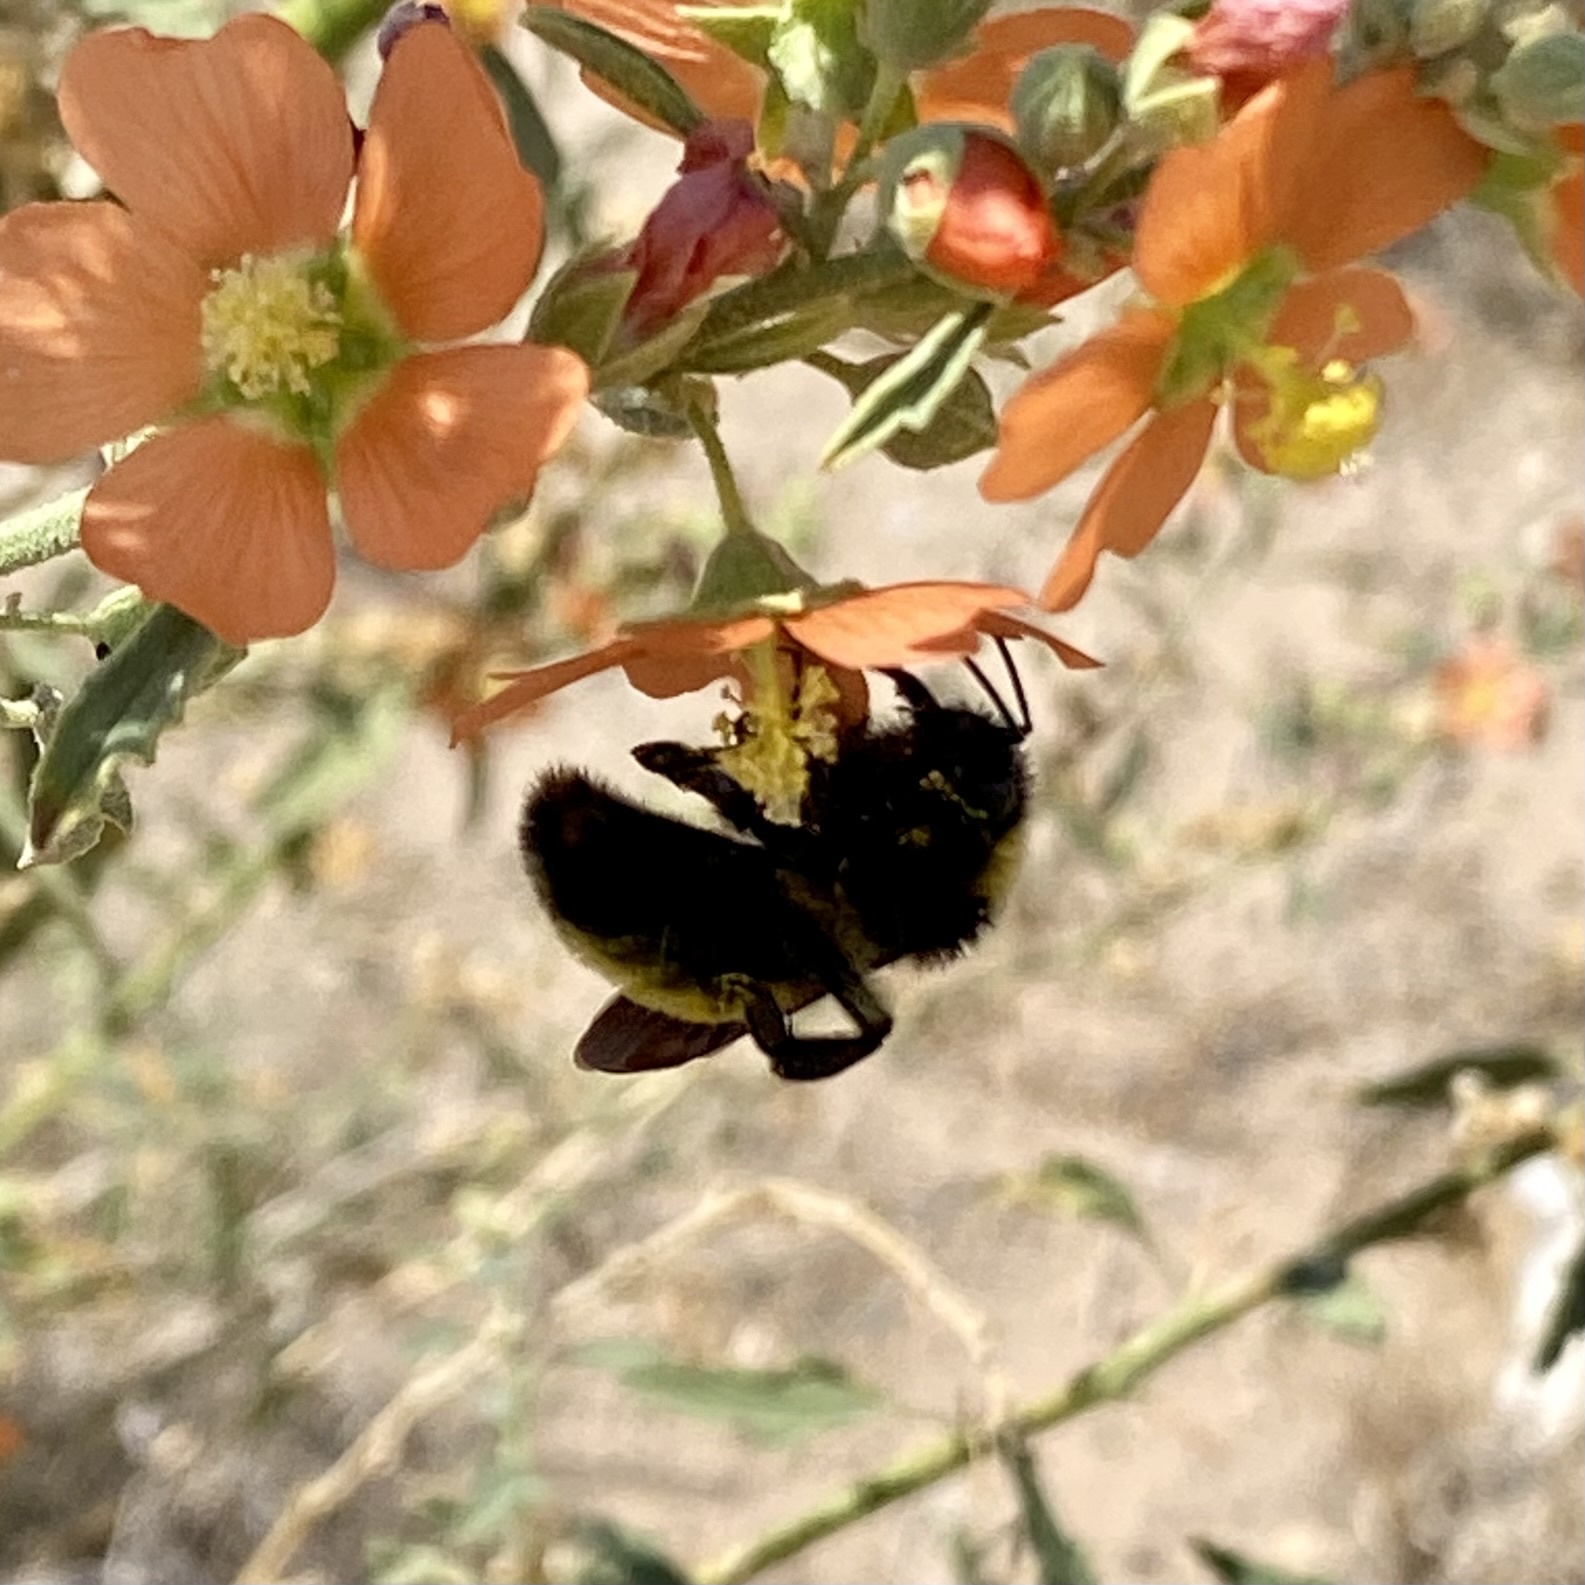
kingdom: Animalia
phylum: Arthropoda
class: Insecta
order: Hymenoptera
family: Apidae
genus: Bombus
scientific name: Bombus pensylvanicus
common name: Bumble bee
